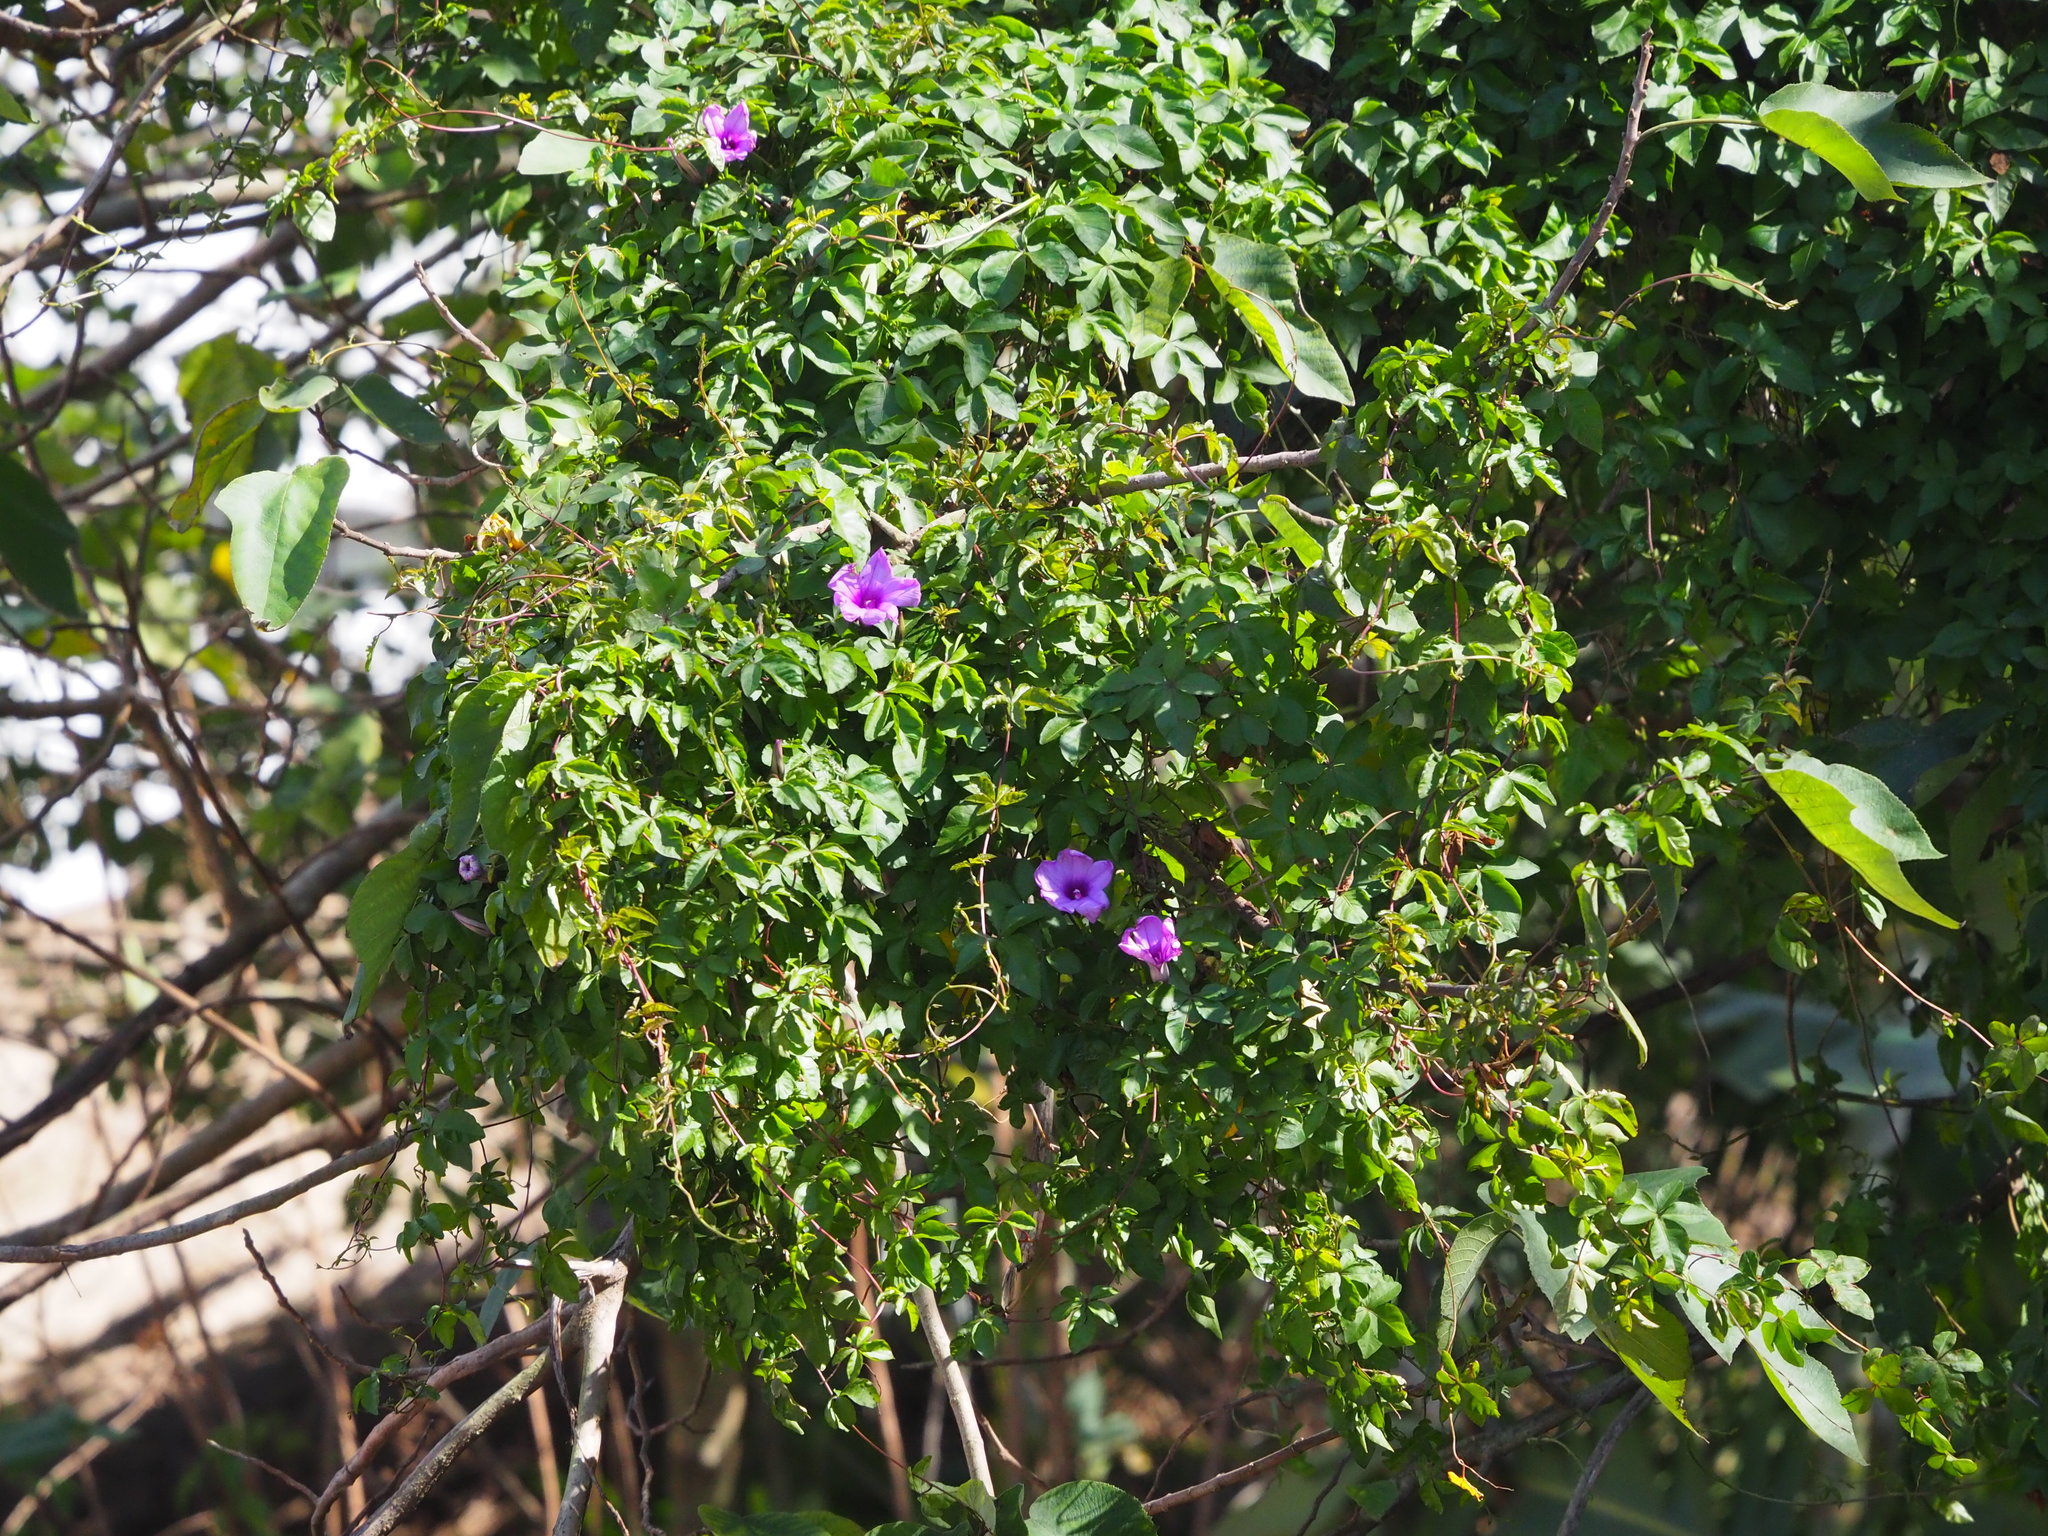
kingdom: Plantae
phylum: Tracheophyta
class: Magnoliopsida
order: Solanales
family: Convolvulaceae
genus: Ipomoea
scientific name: Ipomoea cairica
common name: Mile a minute vine
